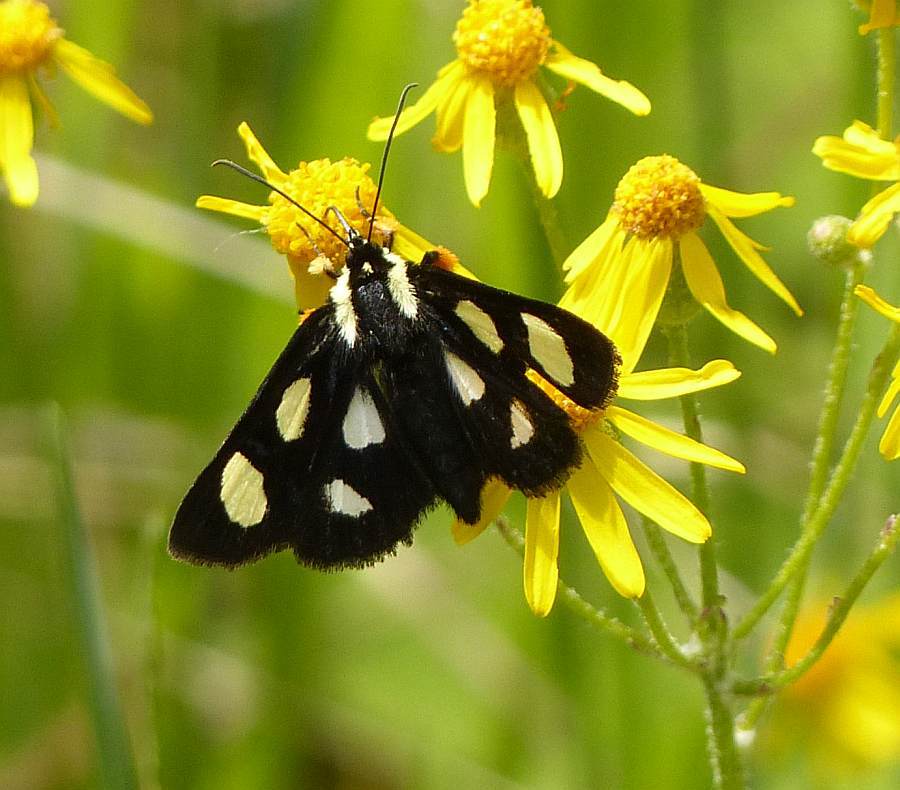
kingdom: Animalia
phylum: Arthropoda
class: Insecta
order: Lepidoptera
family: Noctuidae
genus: Alypia
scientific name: Alypia octomaculata
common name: Eight-spotted forester
